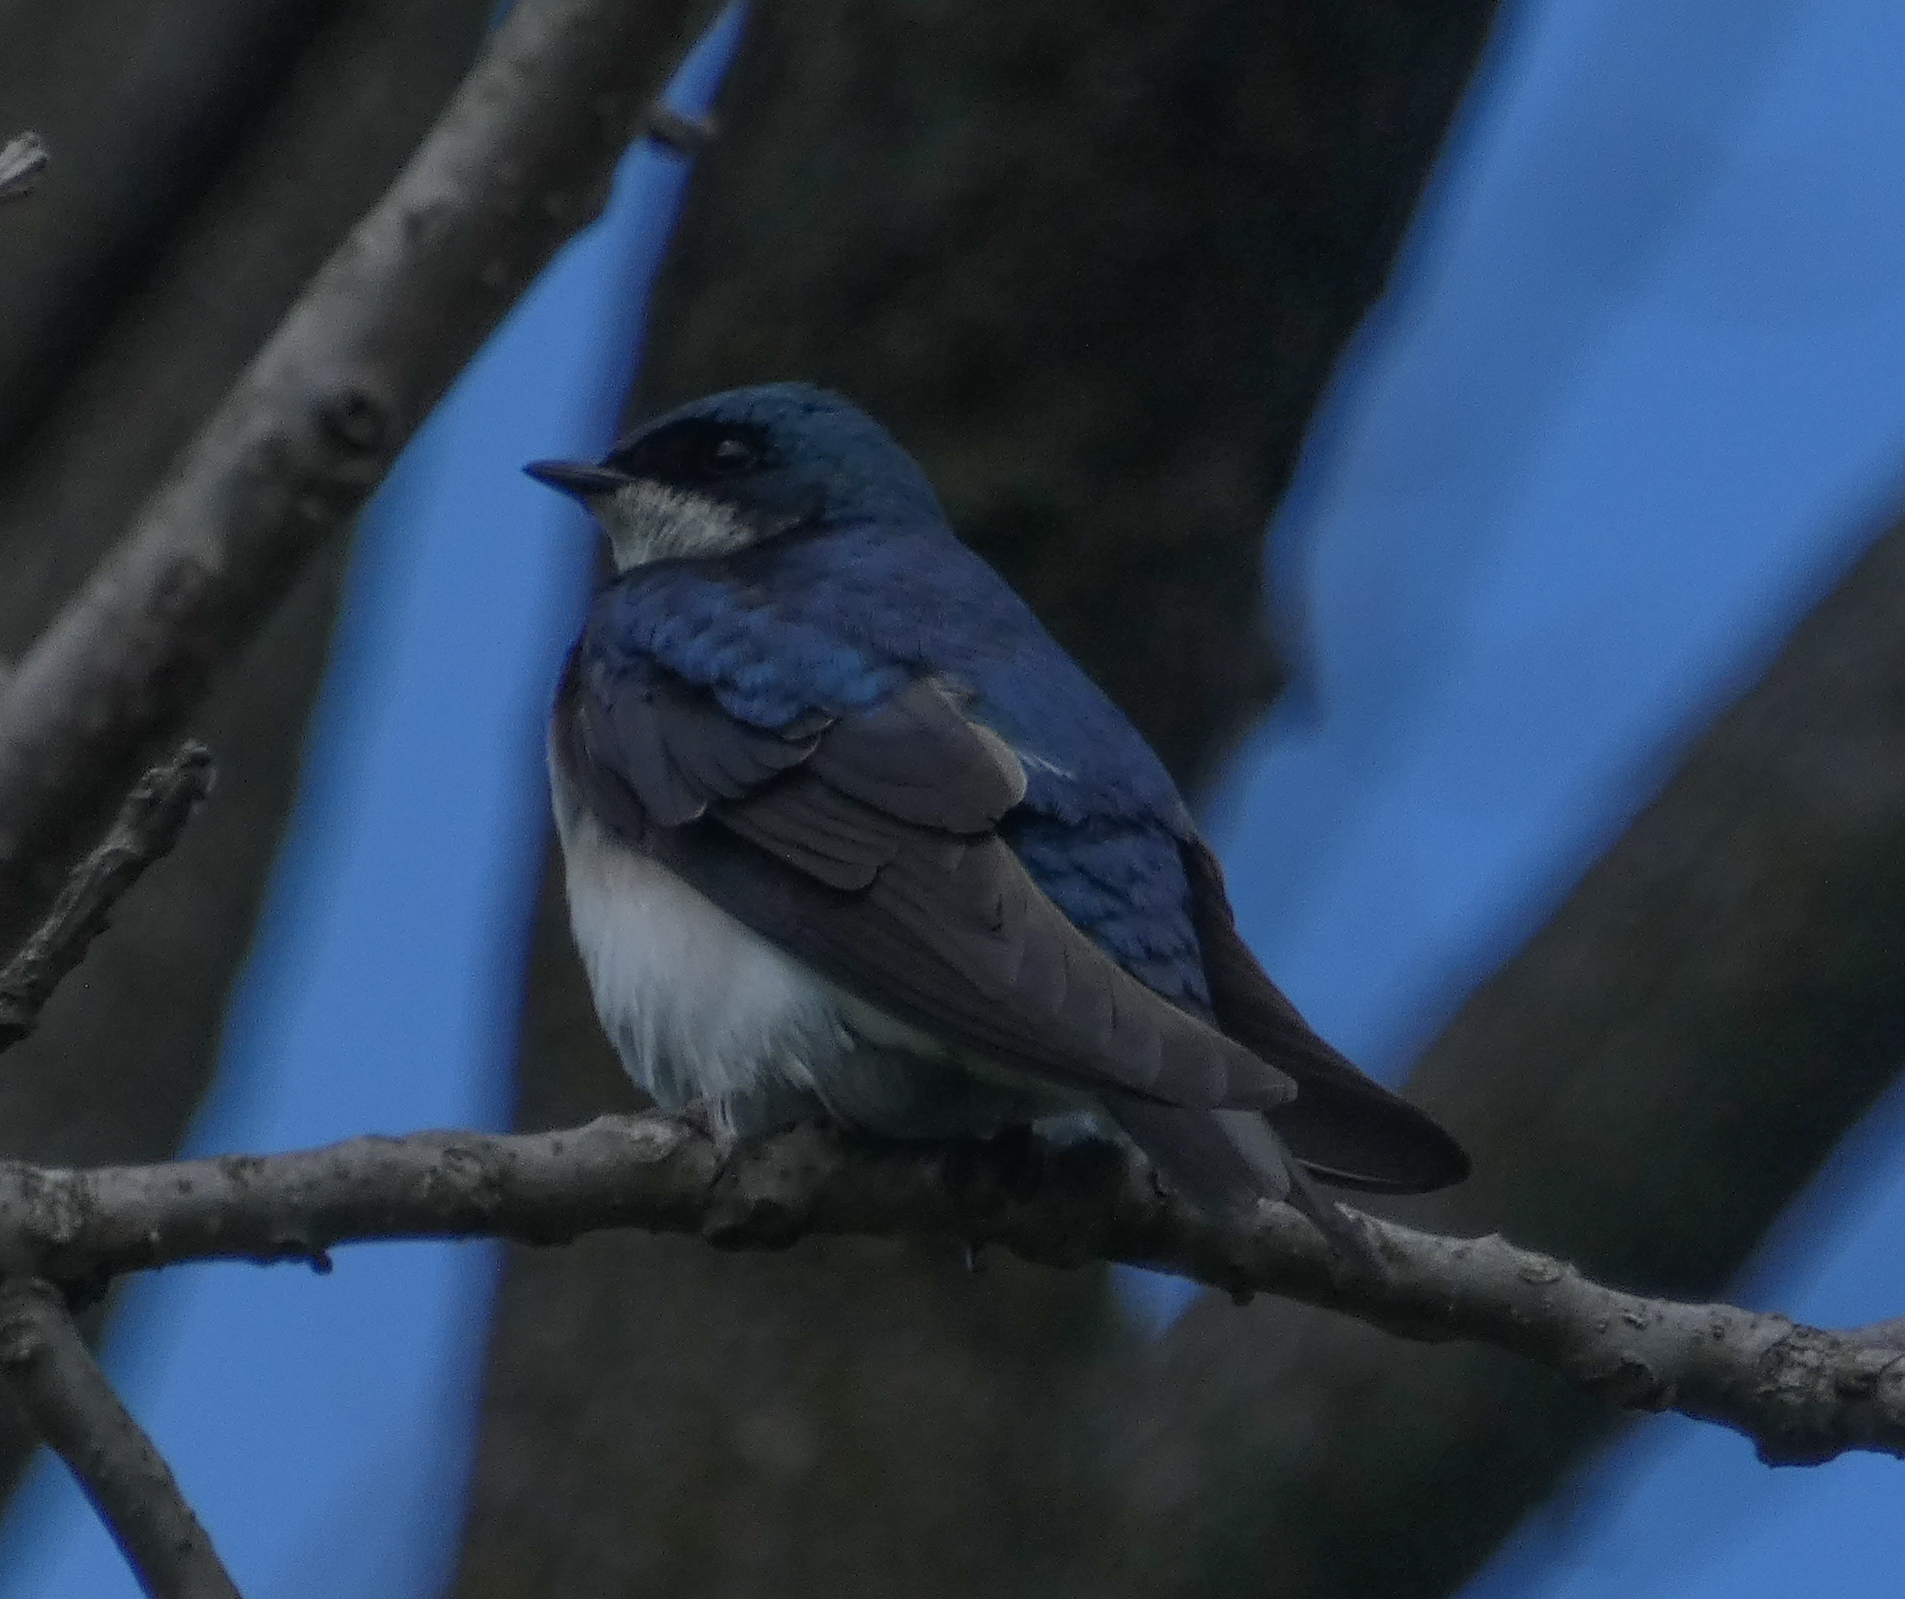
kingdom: Animalia
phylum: Chordata
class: Aves
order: Passeriformes
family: Hirundinidae
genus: Tachycineta
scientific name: Tachycineta bicolor
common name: Tree swallow
